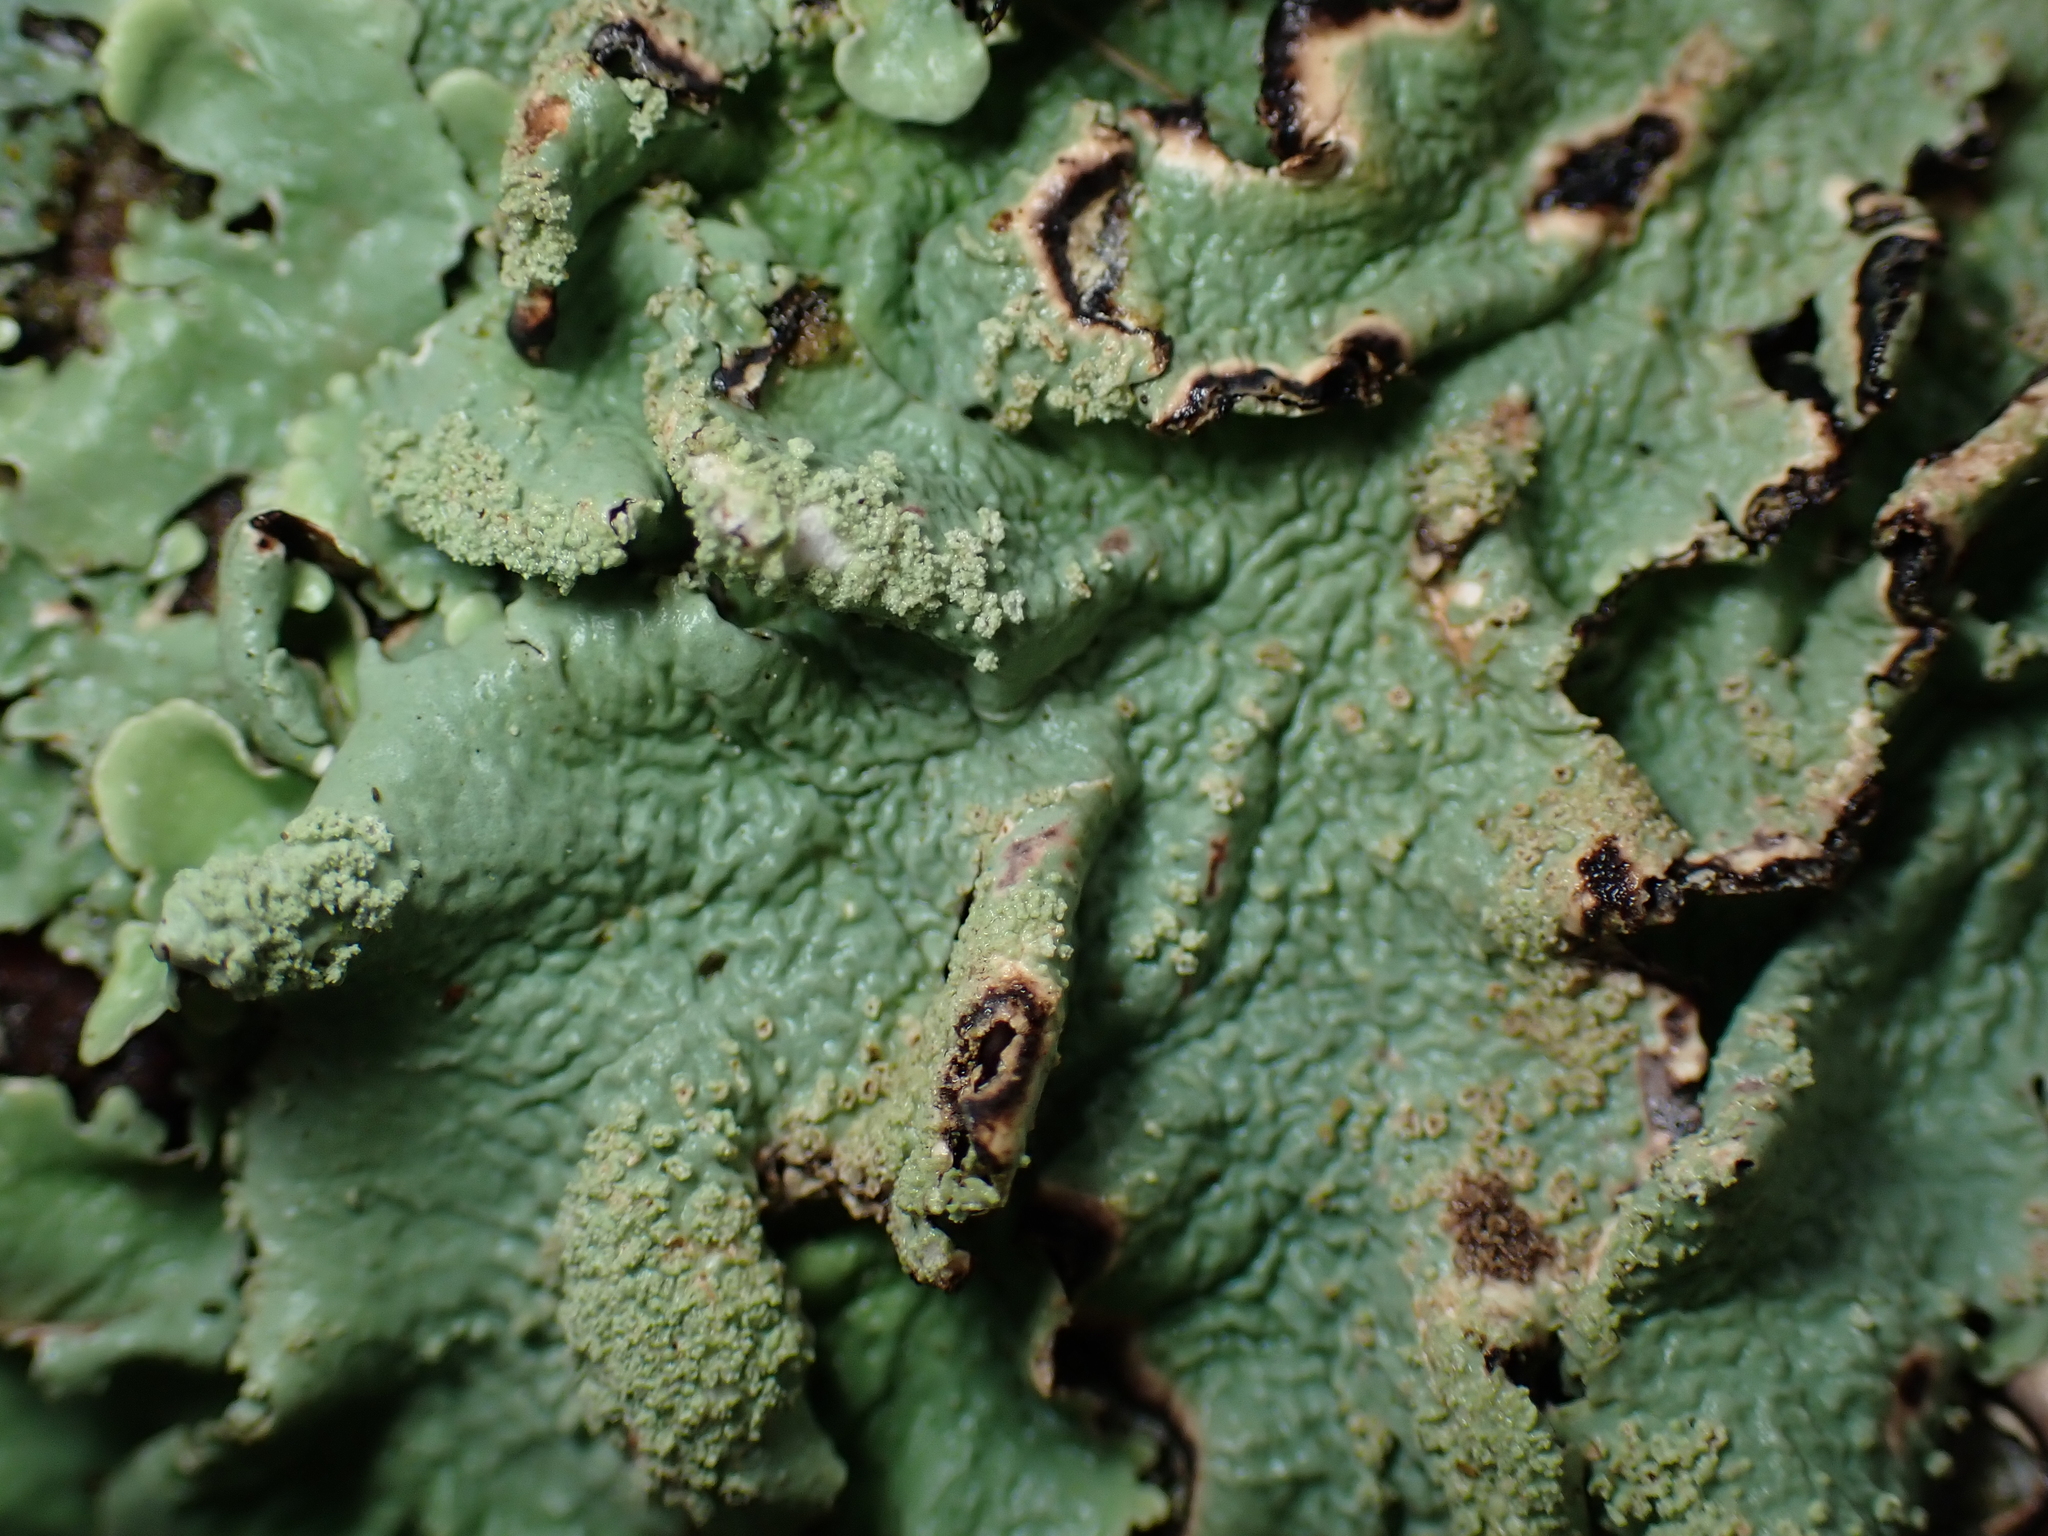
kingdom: Fungi
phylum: Ascomycota
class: Lecanoromycetes
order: Lecanorales
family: Parmeliaceae
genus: Flavoparmelia
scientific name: Flavoparmelia caperata
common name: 40-mile per hour lichen
